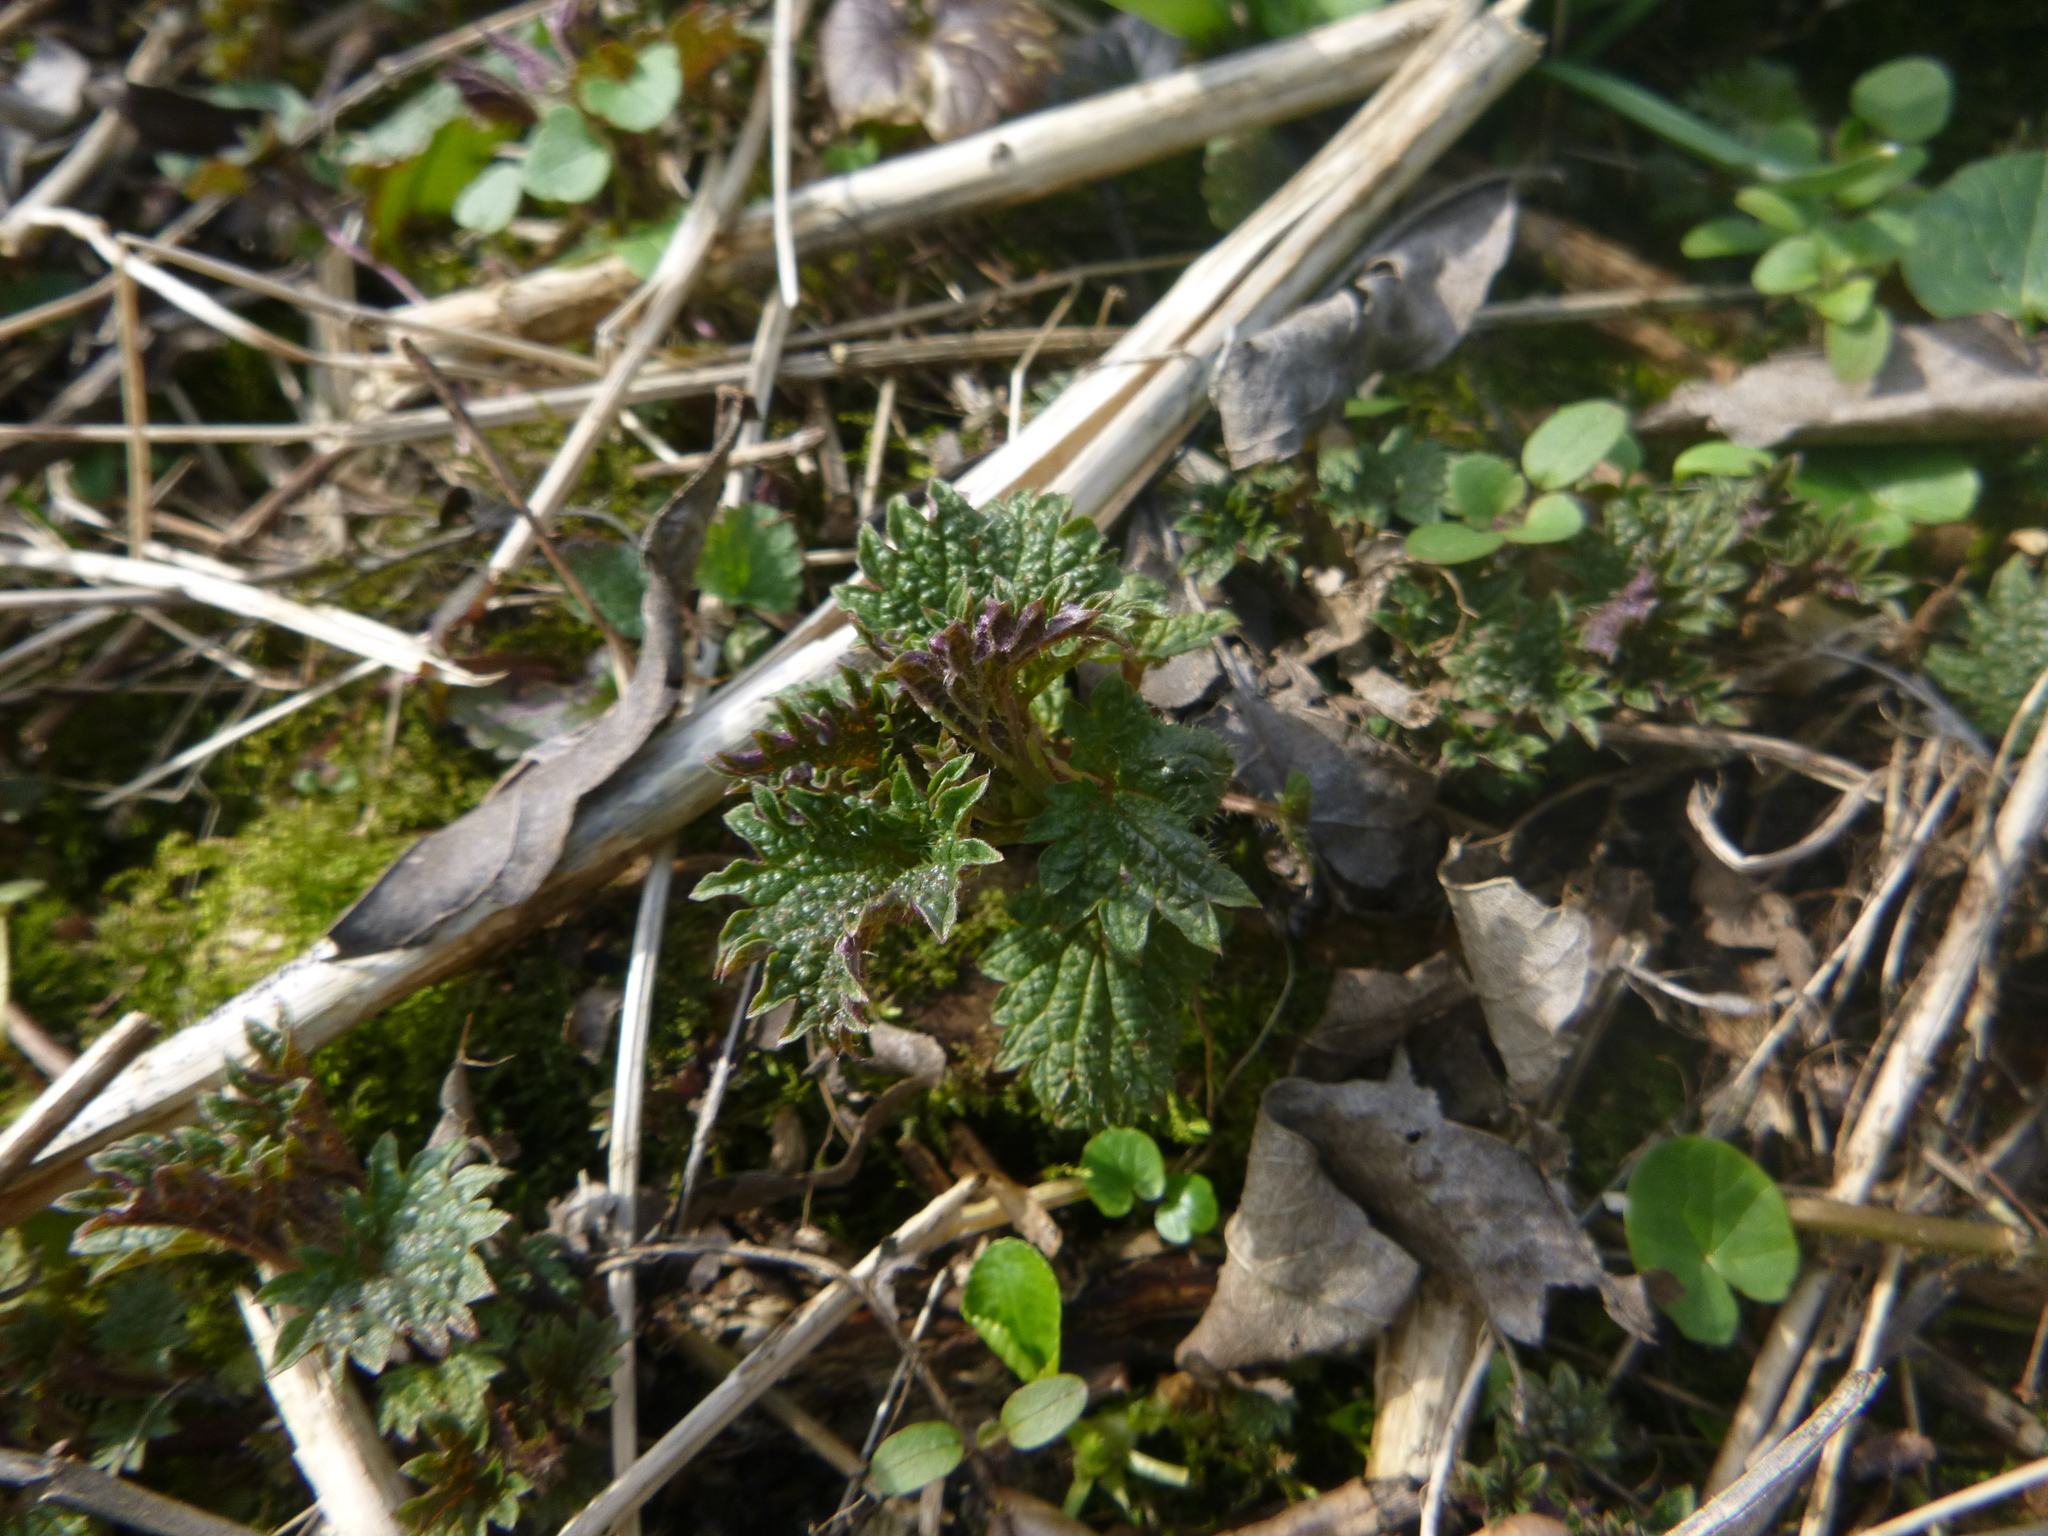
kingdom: Plantae
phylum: Tracheophyta
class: Magnoliopsida
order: Rosales
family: Urticaceae
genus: Urtica
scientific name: Urtica dioica
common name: Common nettle
